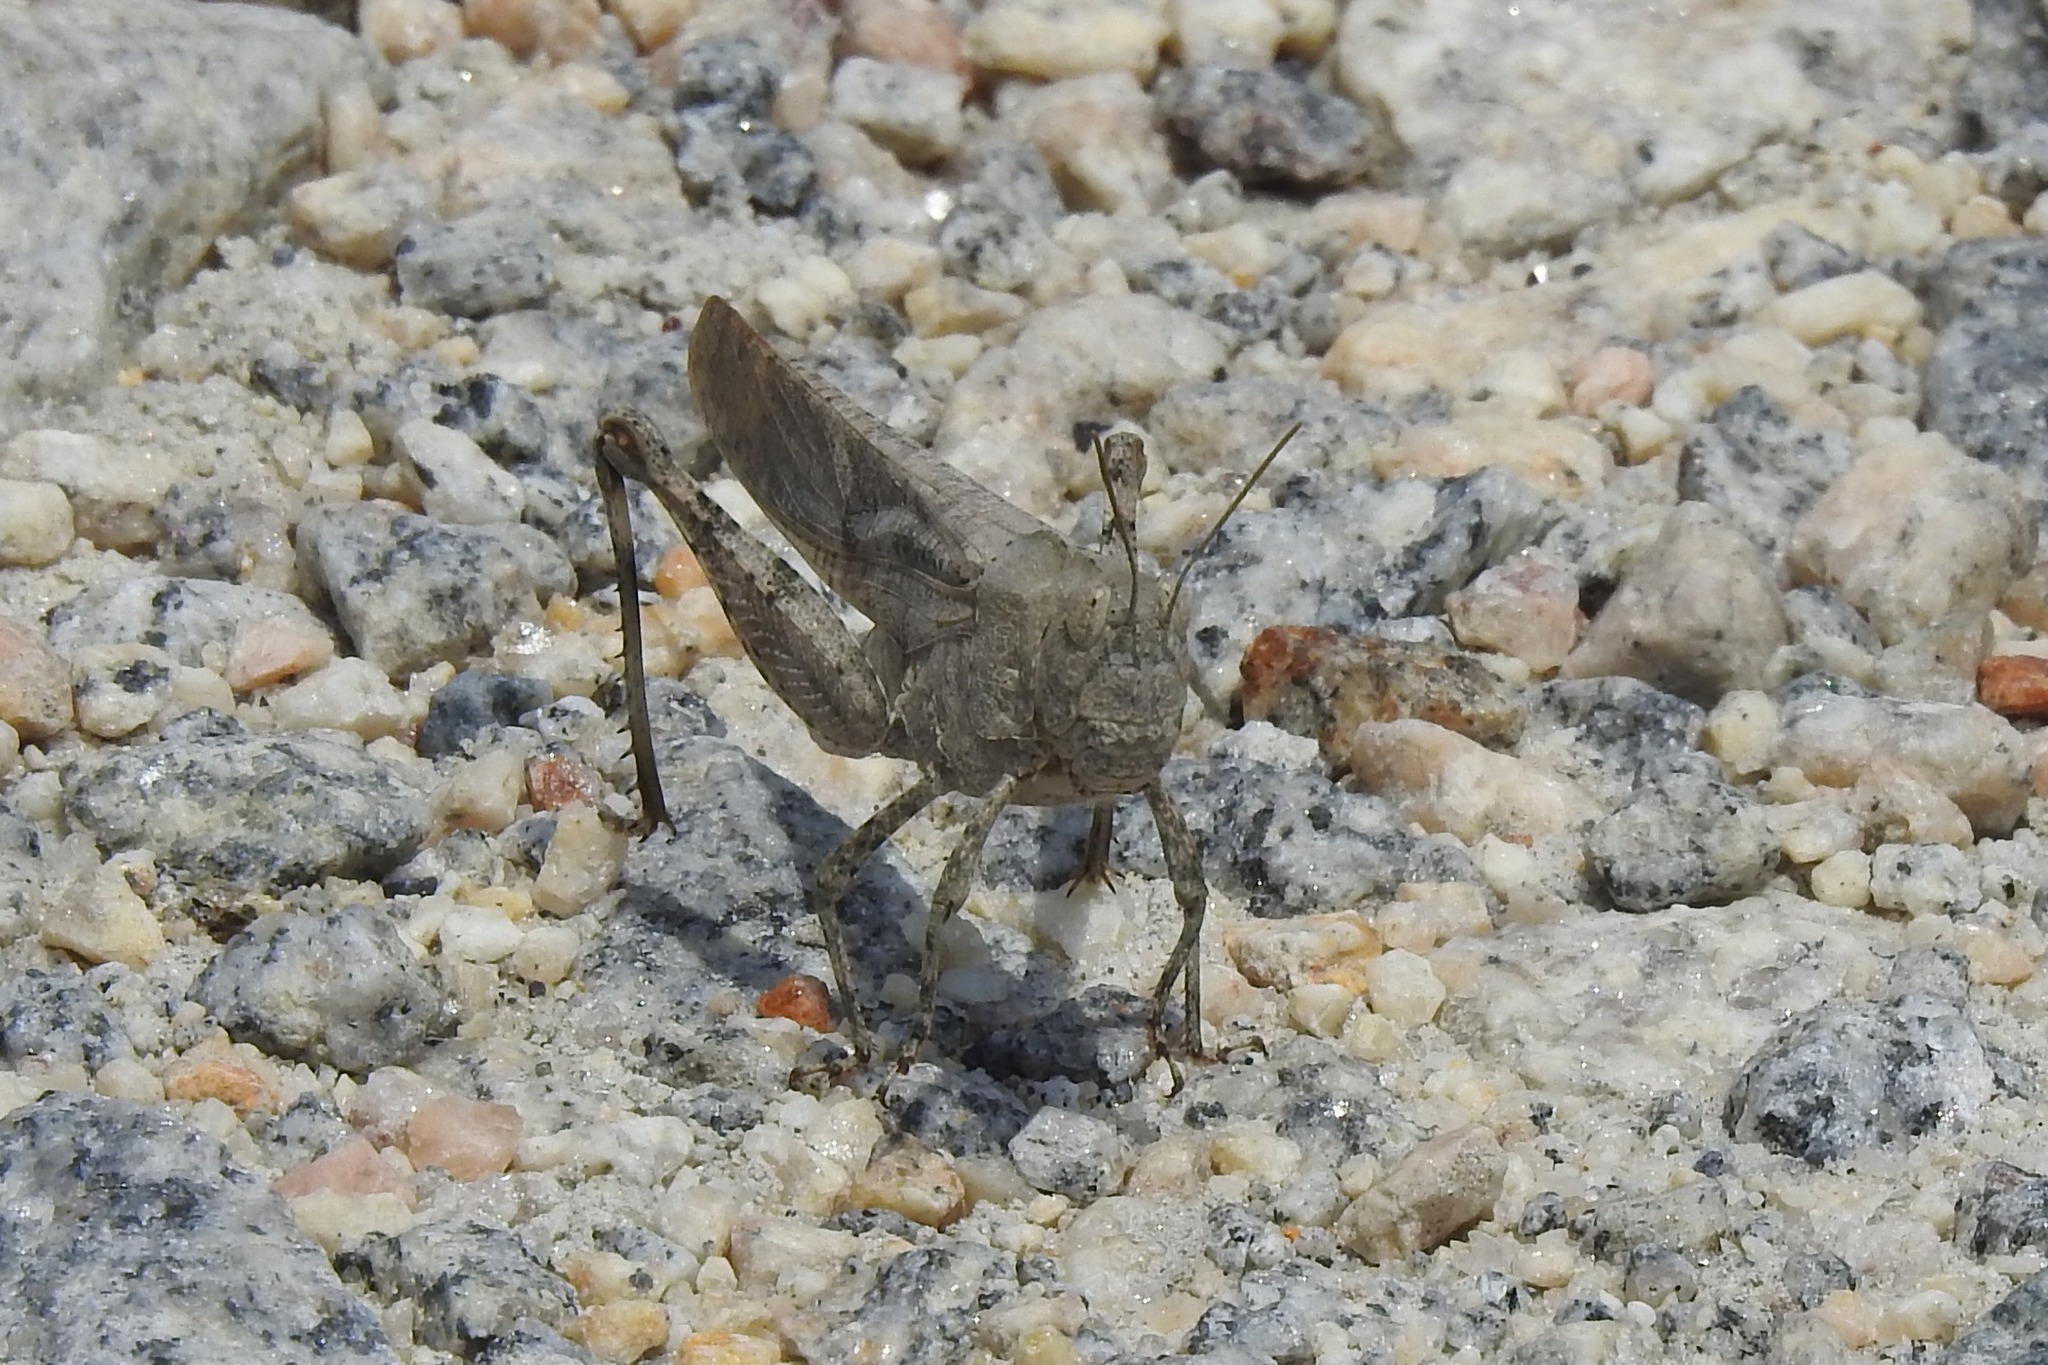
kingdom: Animalia
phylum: Arthropoda
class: Insecta
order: Orthoptera
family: Acrididae
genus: Dissosteira
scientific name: Dissosteira carolina
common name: Carolina grasshopper
